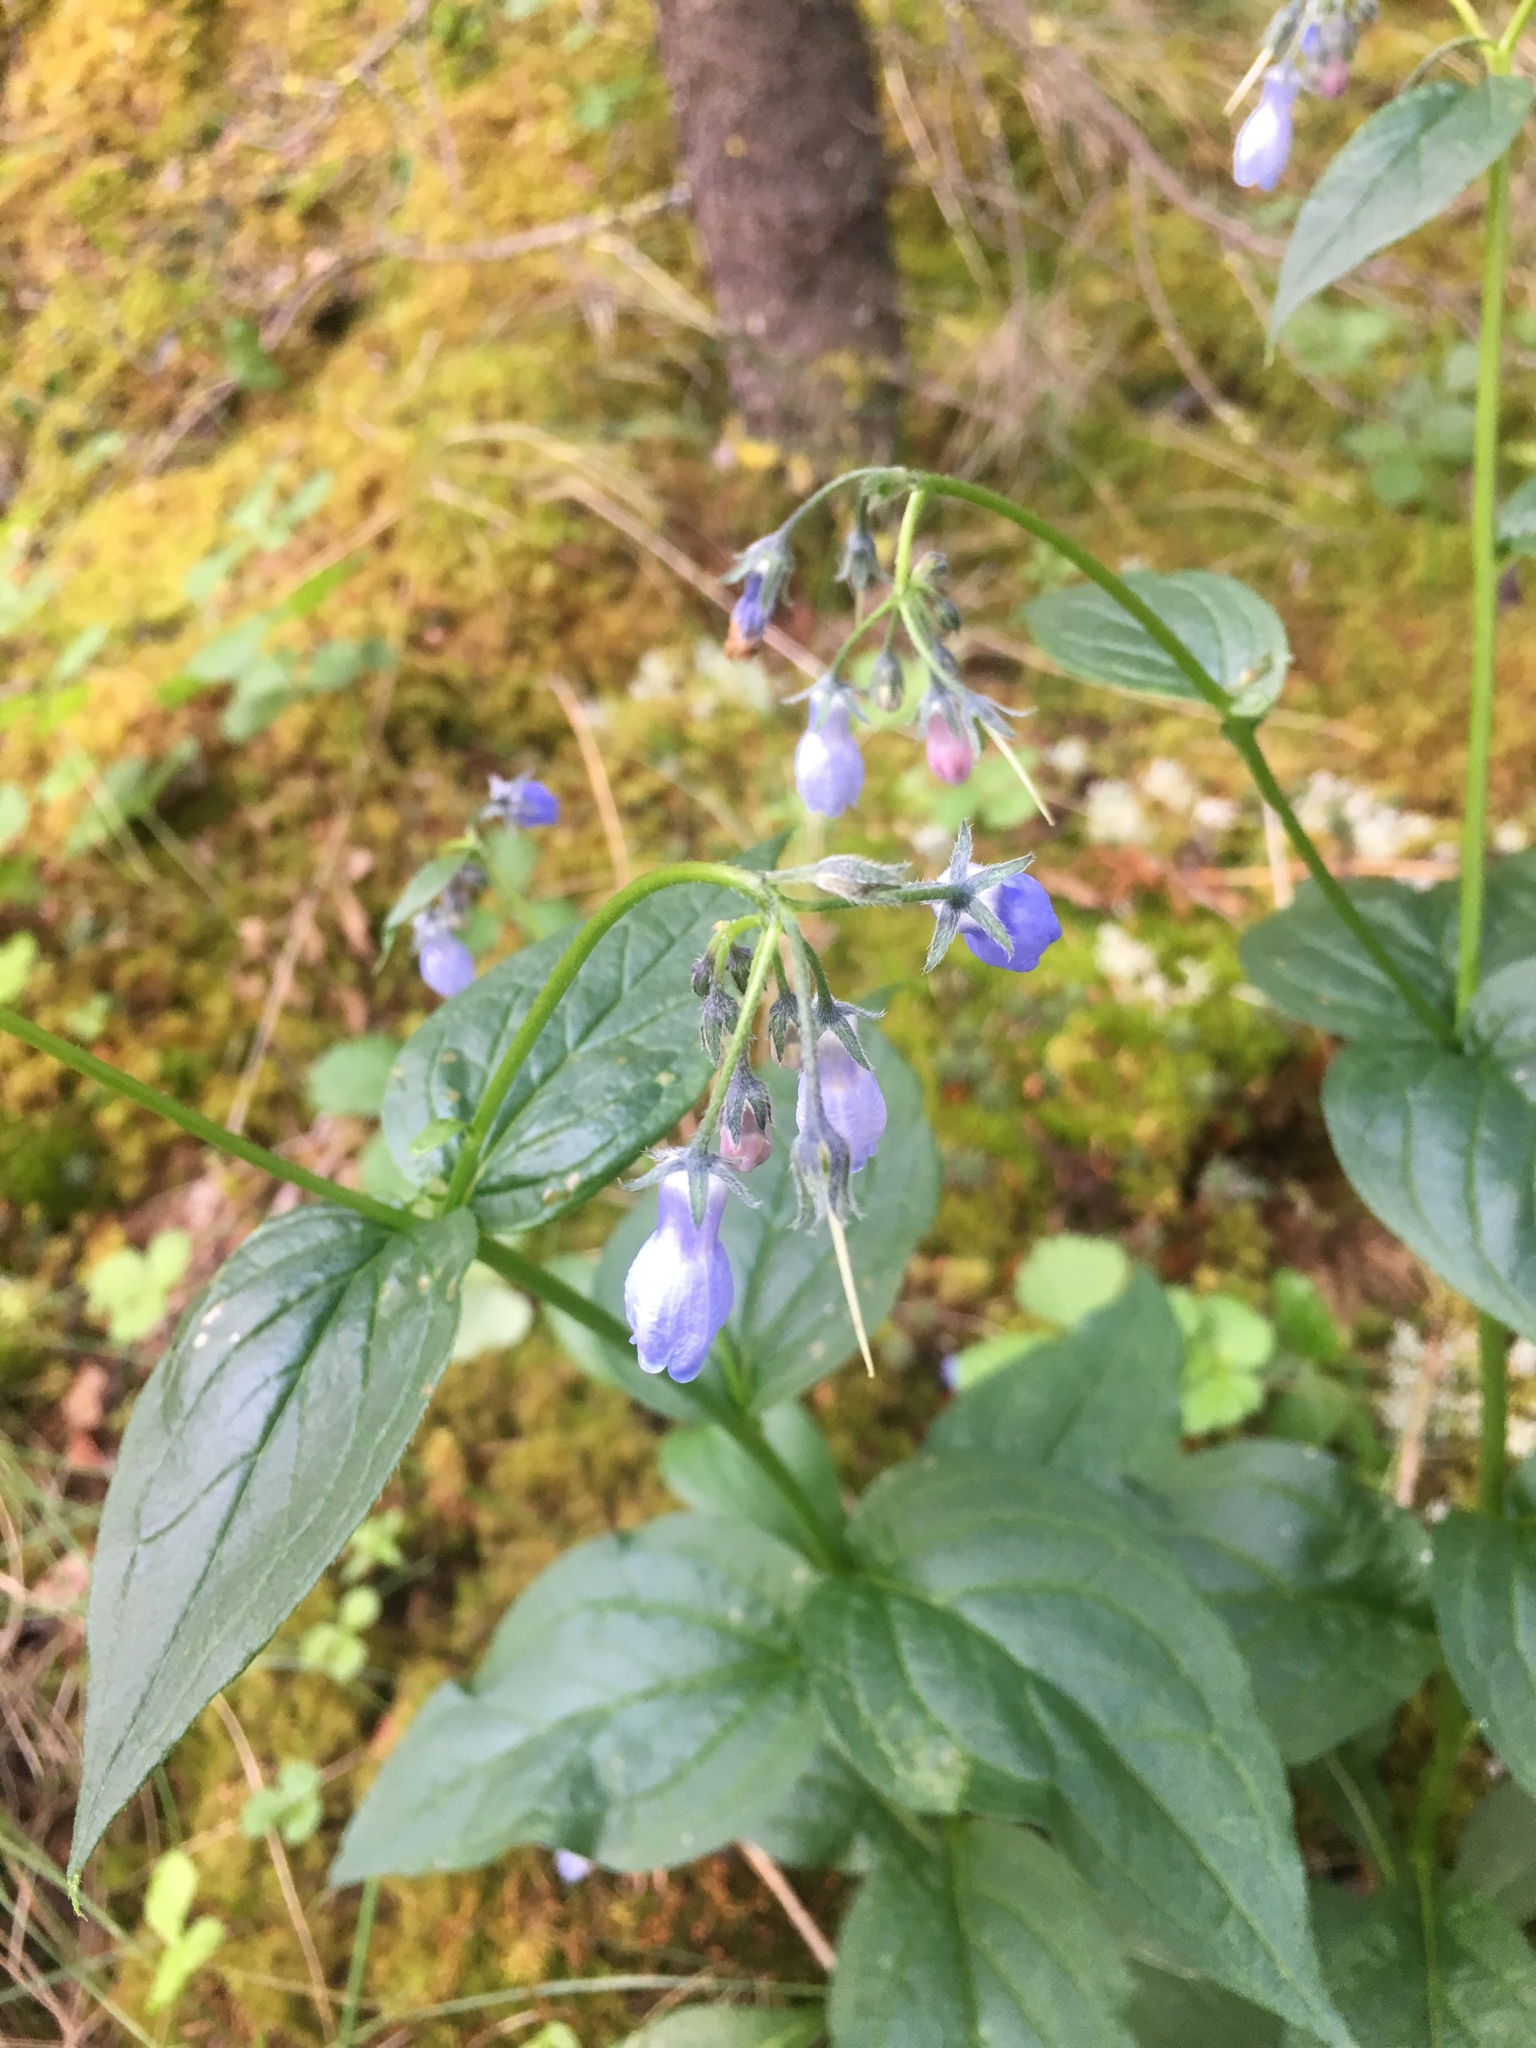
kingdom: Plantae
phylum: Tracheophyta
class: Magnoliopsida
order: Boraginales
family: Boraginaceae
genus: Mertensia
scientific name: Mertensia paniculata
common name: Panicled bluebells
